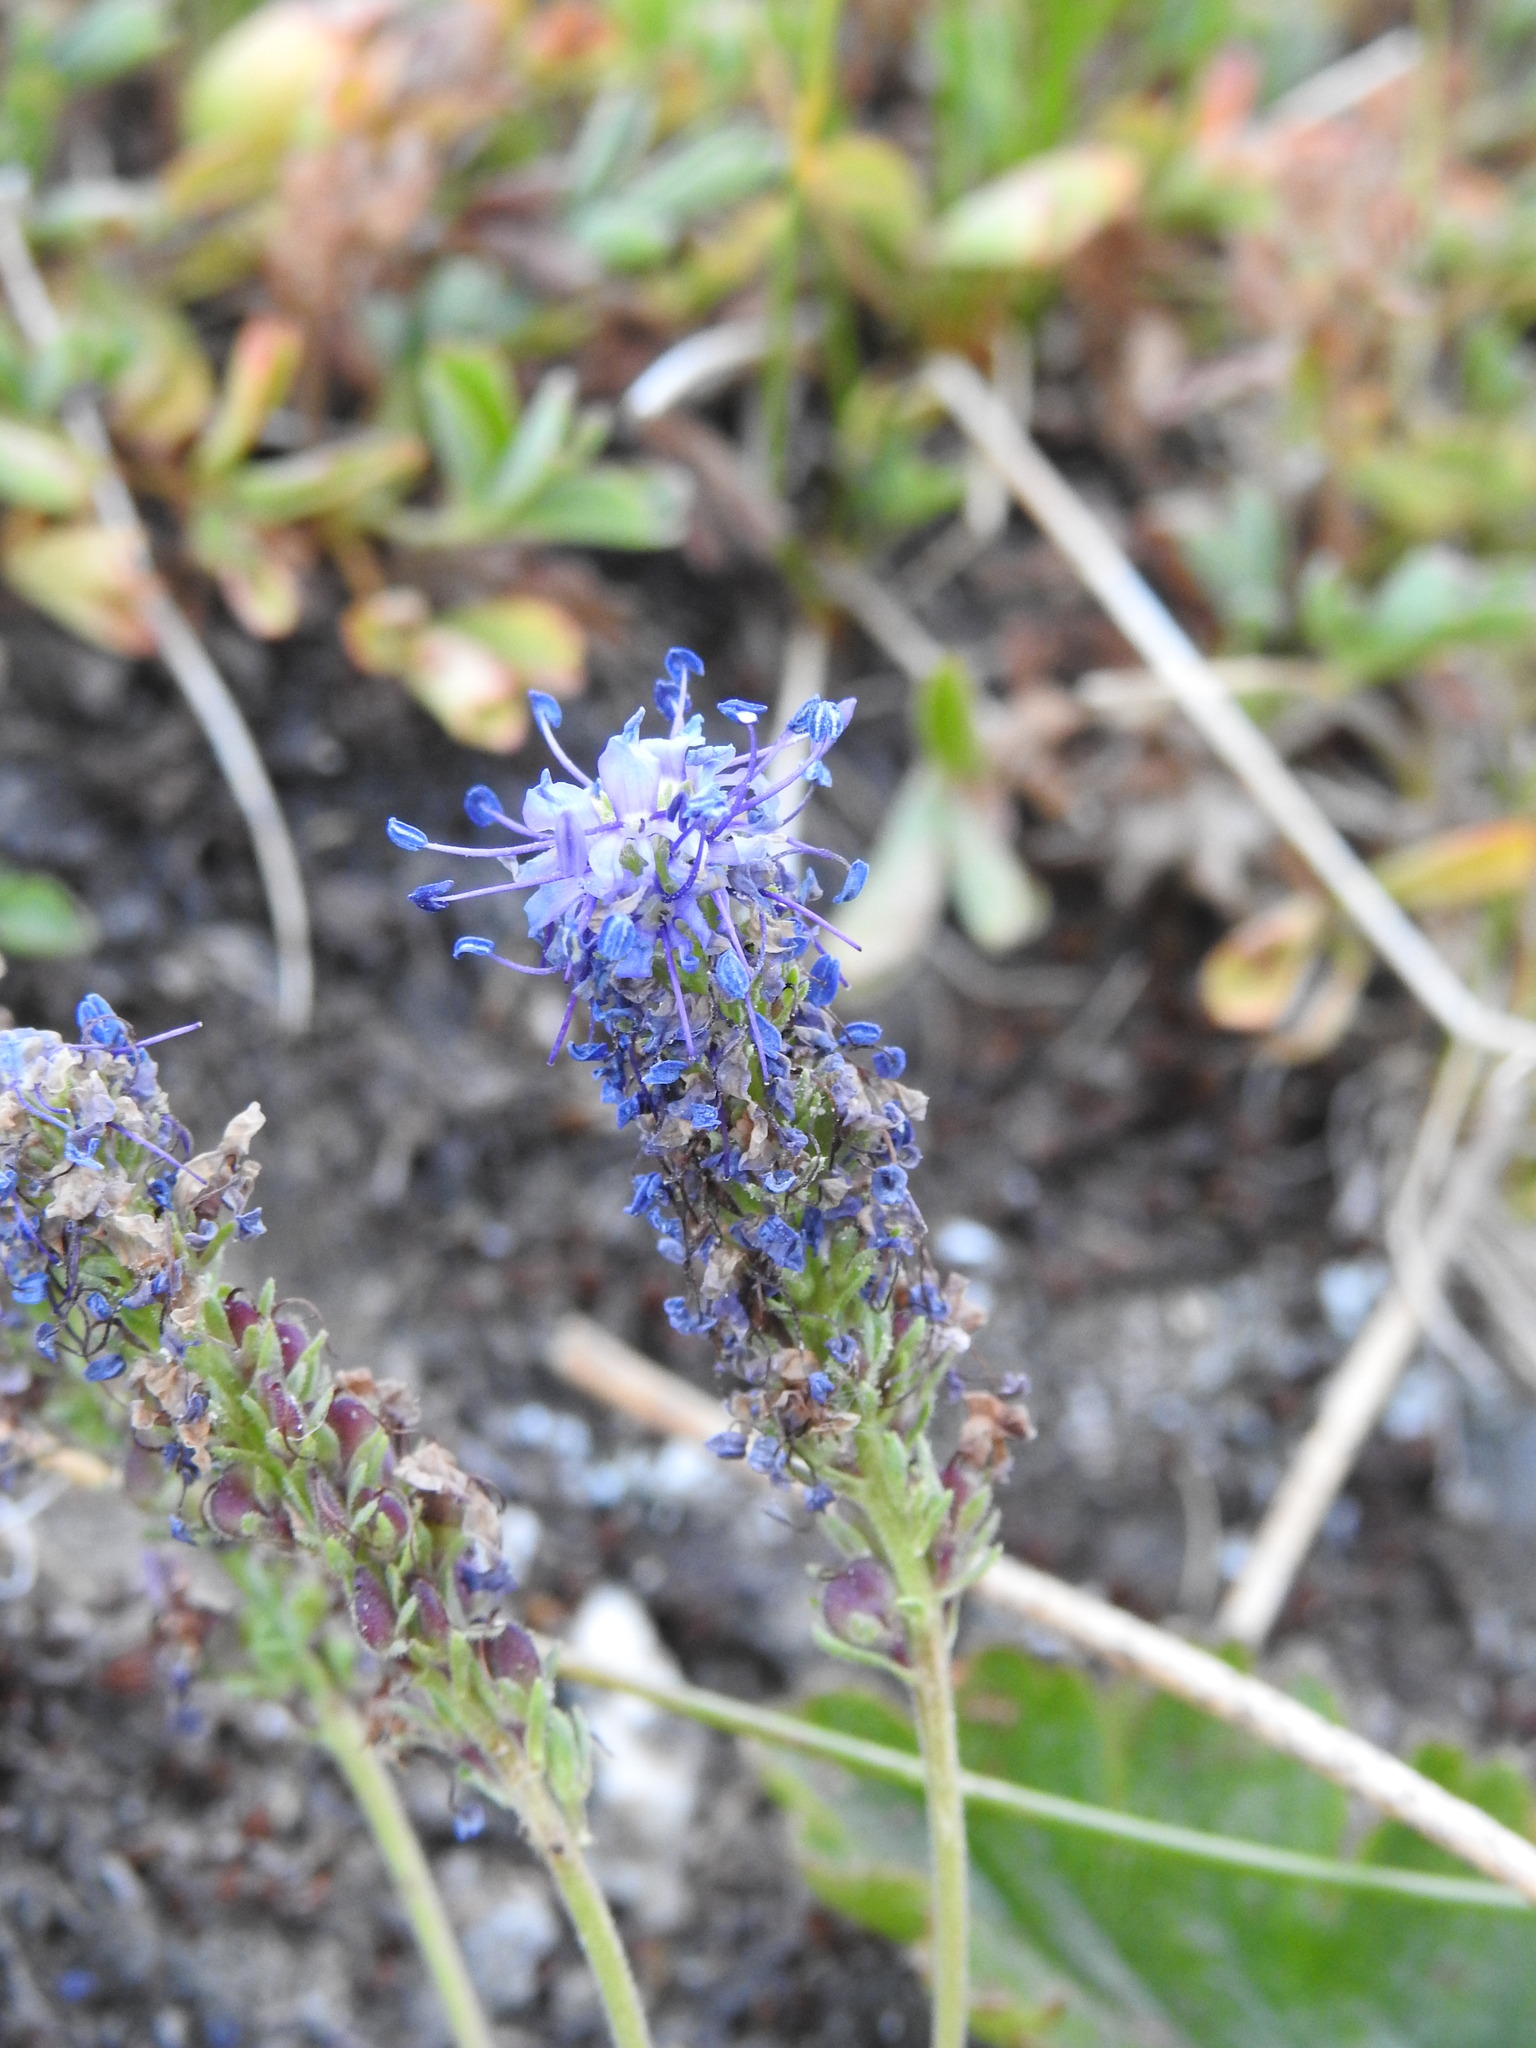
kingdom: Plantae
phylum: Tracheophyta
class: Magnoliopsida
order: Lamiales
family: Plantaginaceae
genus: Veronica
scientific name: Veronica allionii
